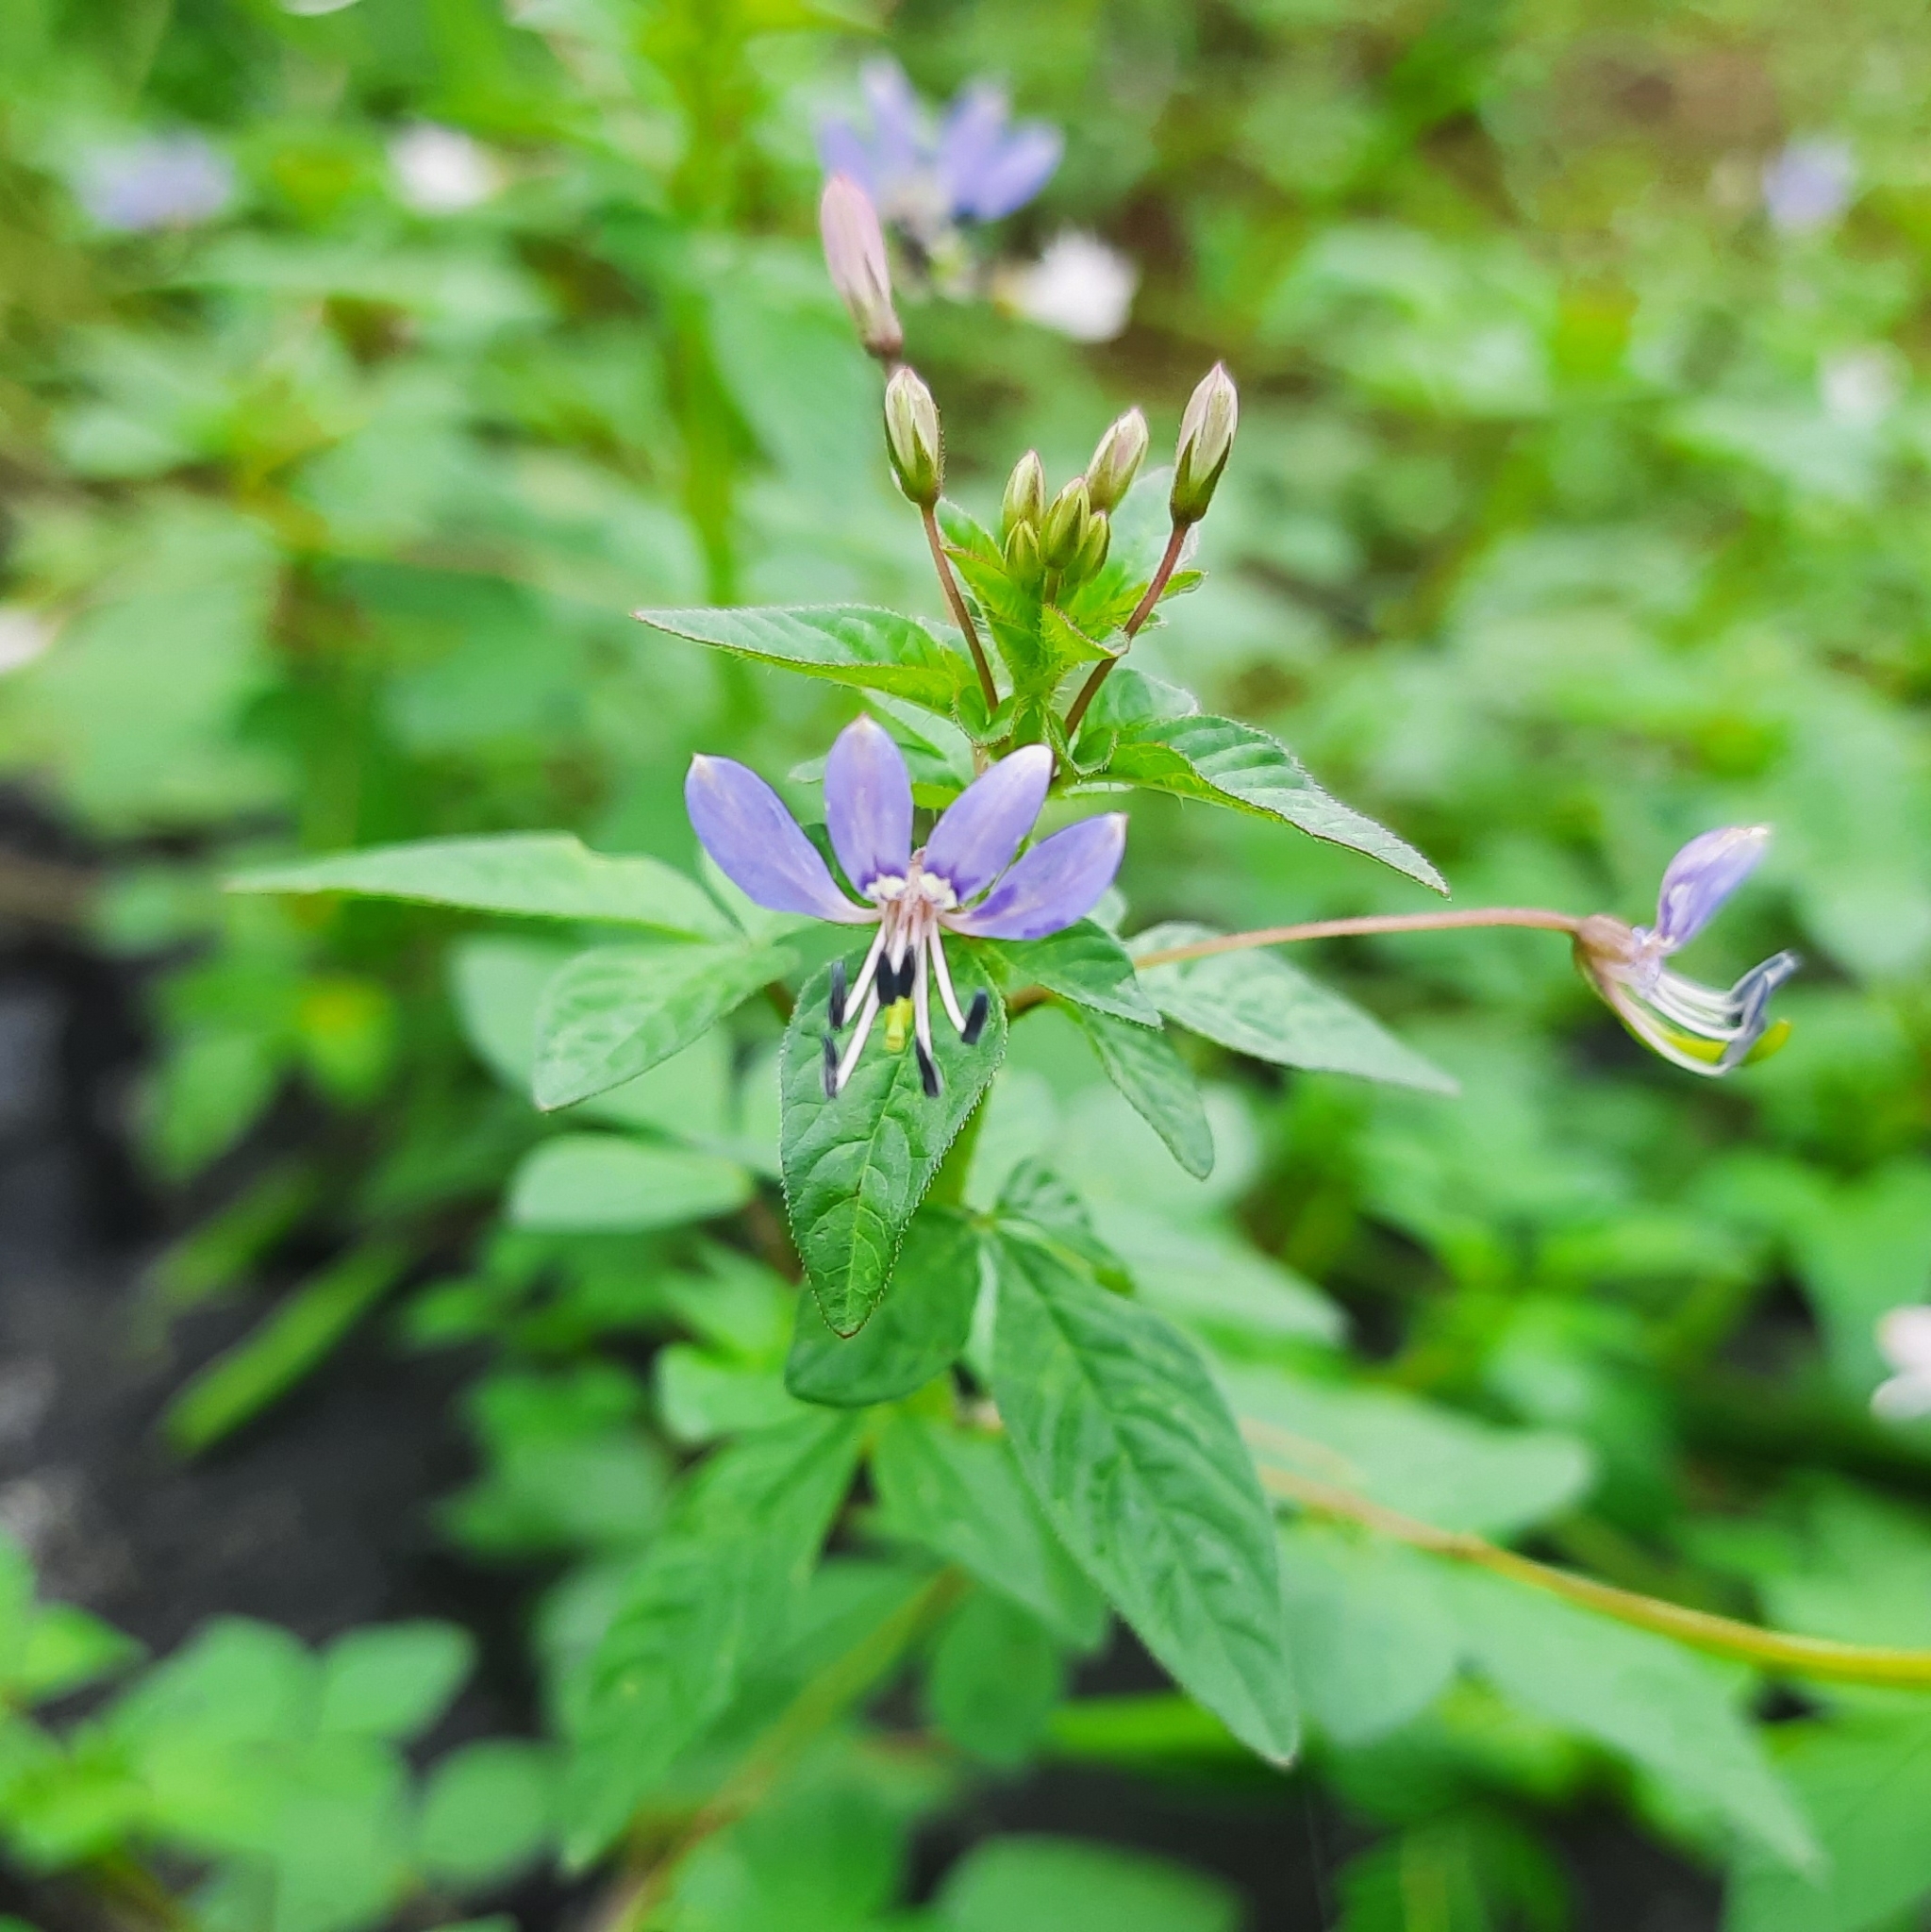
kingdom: Plantae
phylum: Tracheophyta
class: Magnoliopsida
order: Brassicales
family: Cleomaceae
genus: Sieruela
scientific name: Sieruela rutidosperma
